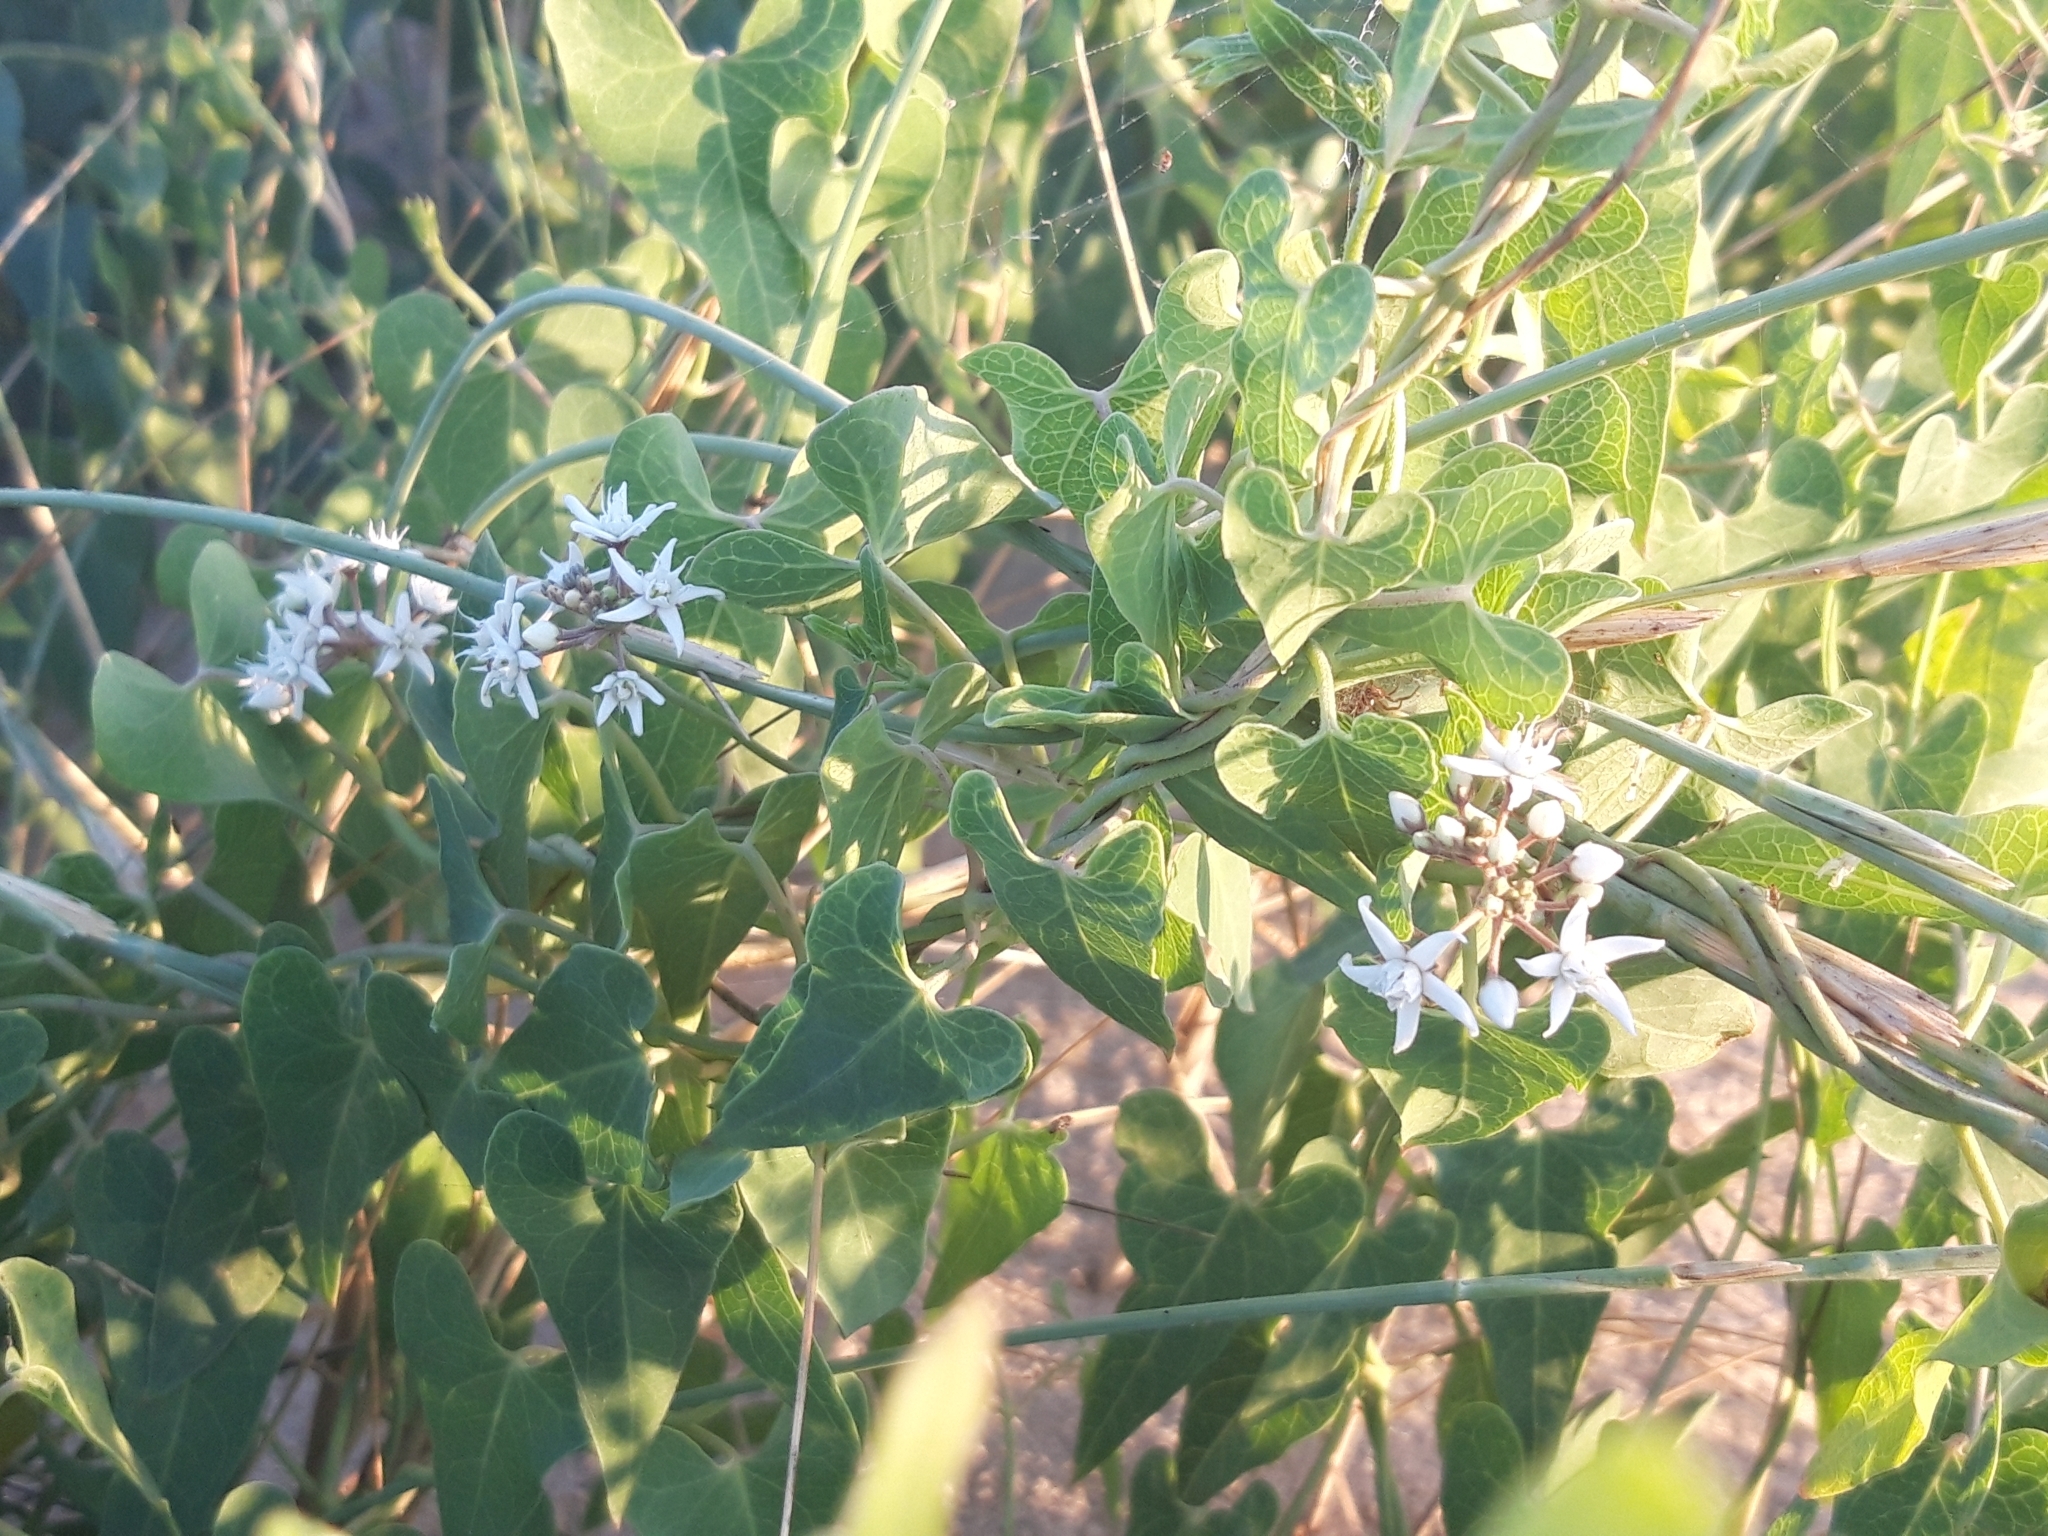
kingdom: Plantae
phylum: Tracheophyta
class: Magnoliopsida
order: Gentianales
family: Apocynaceae
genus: Cynanchum
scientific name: Cynanchum acutum
